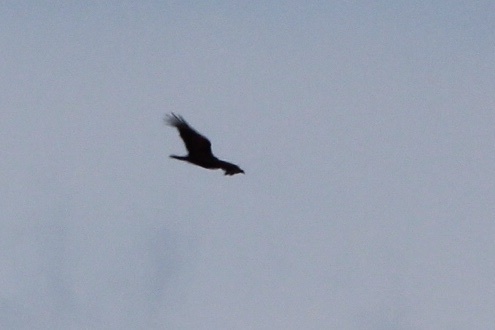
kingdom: Animalia
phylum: Chordata
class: Aves
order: Accipitriformes
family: Cathartidae
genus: Cathartes
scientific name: Cathartes aura
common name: Turkey vulture
